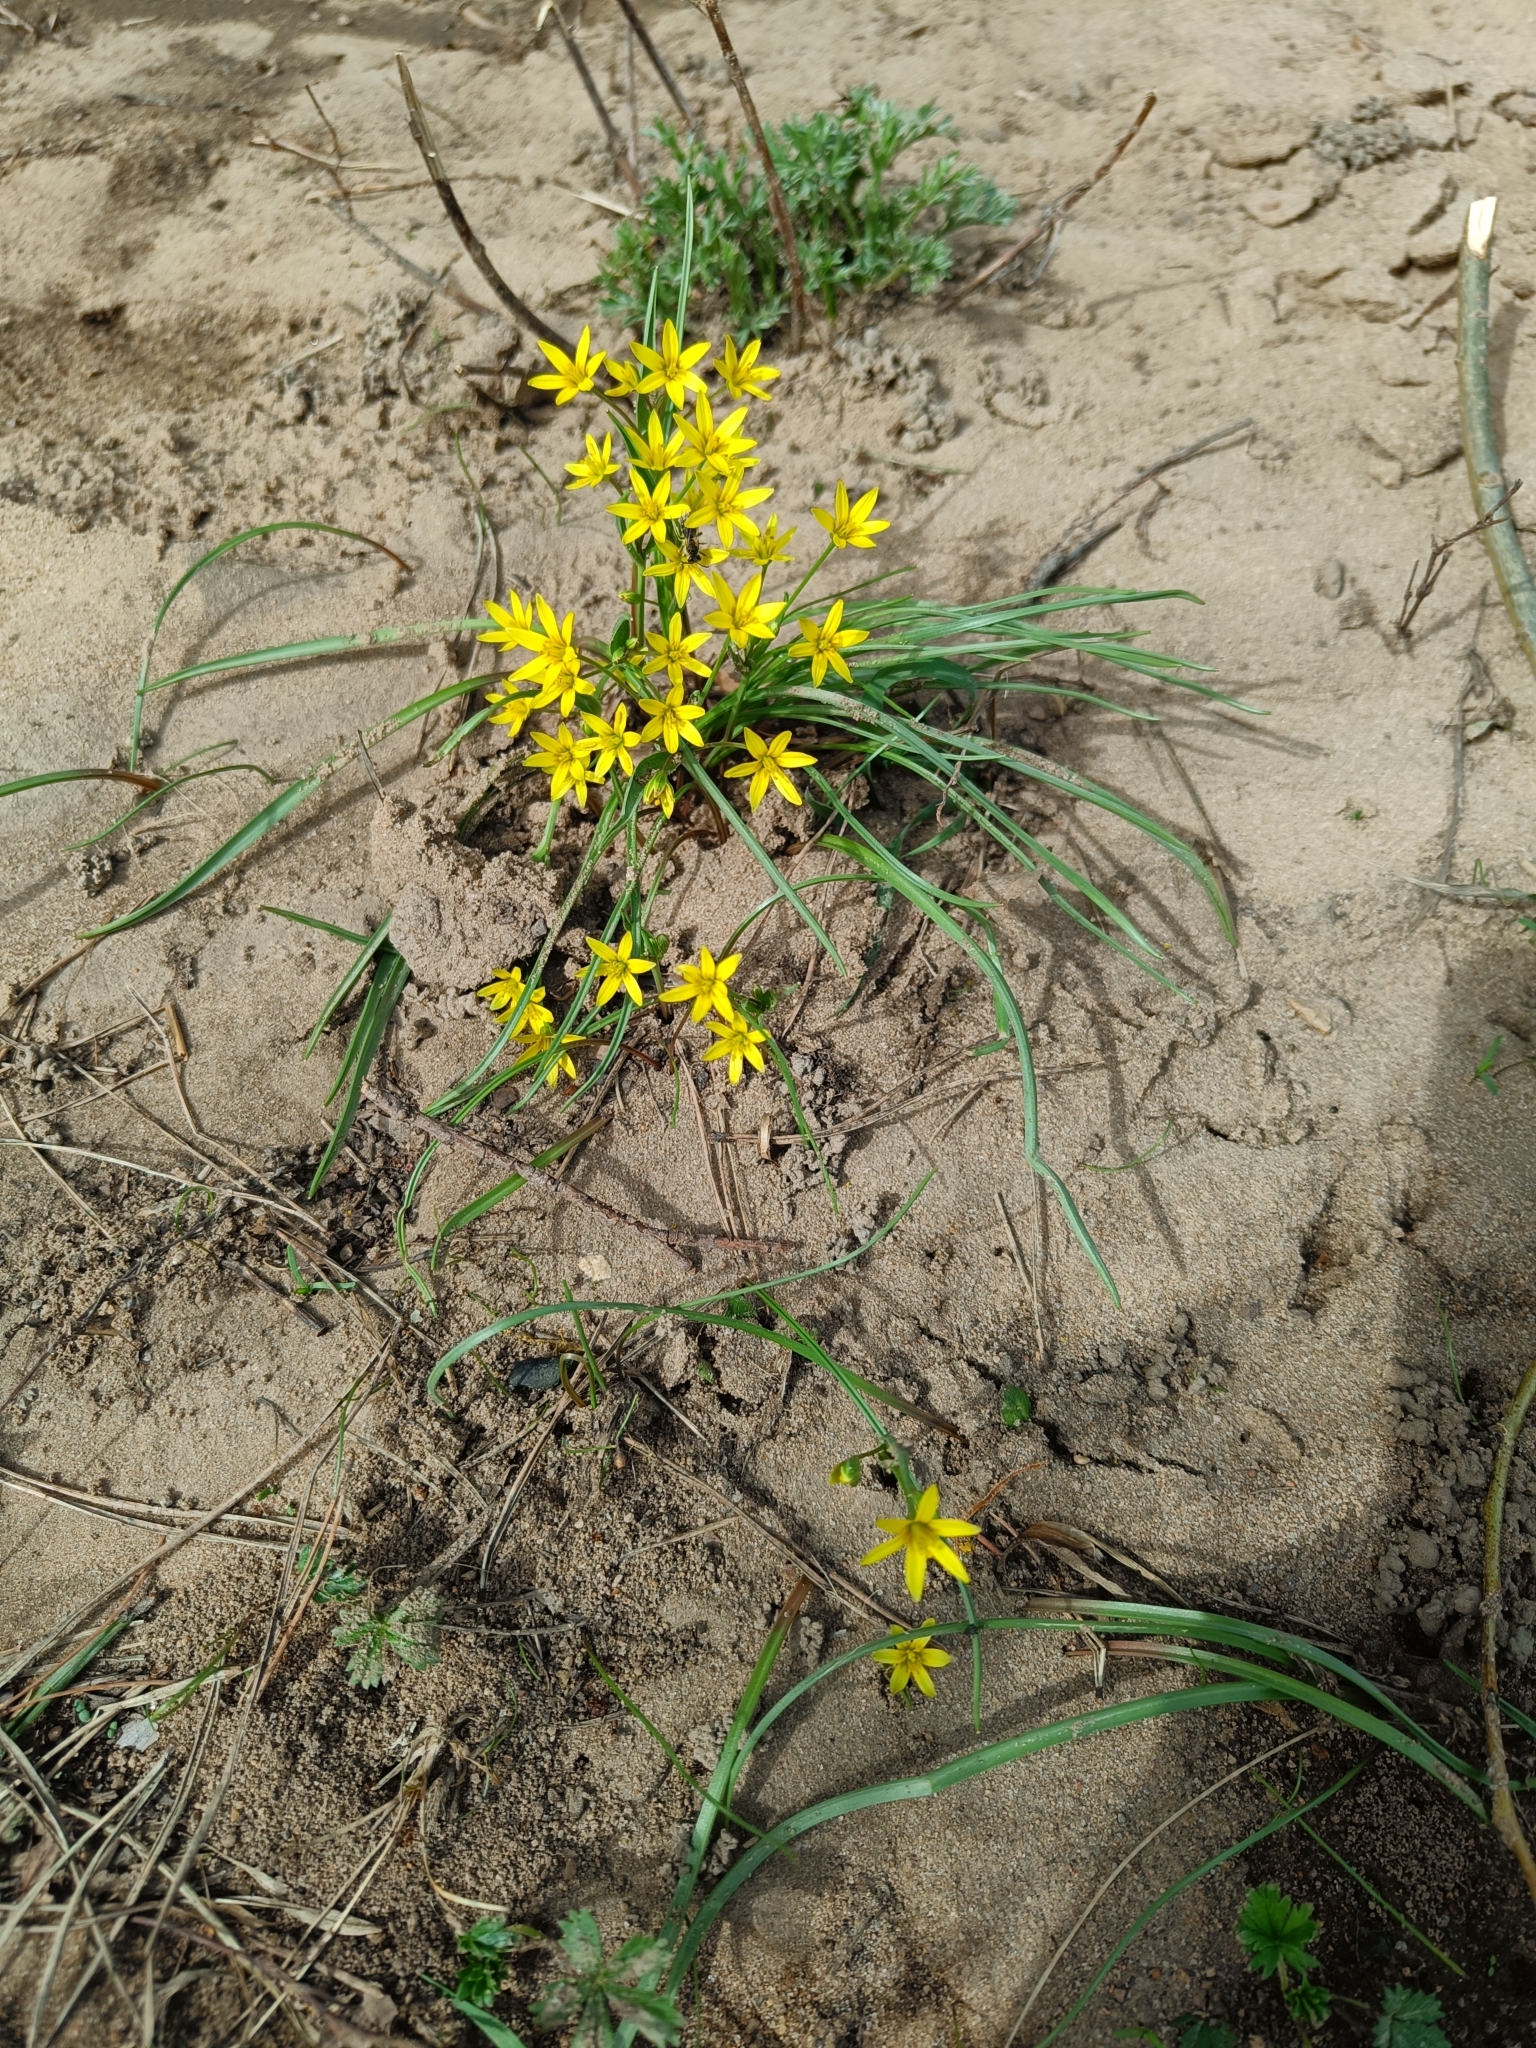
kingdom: Plantae
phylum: Tracheophyta
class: Liliopsida
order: Liliales
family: Liliaceae
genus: Gagea
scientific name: Gagea fragifera
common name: Lily
